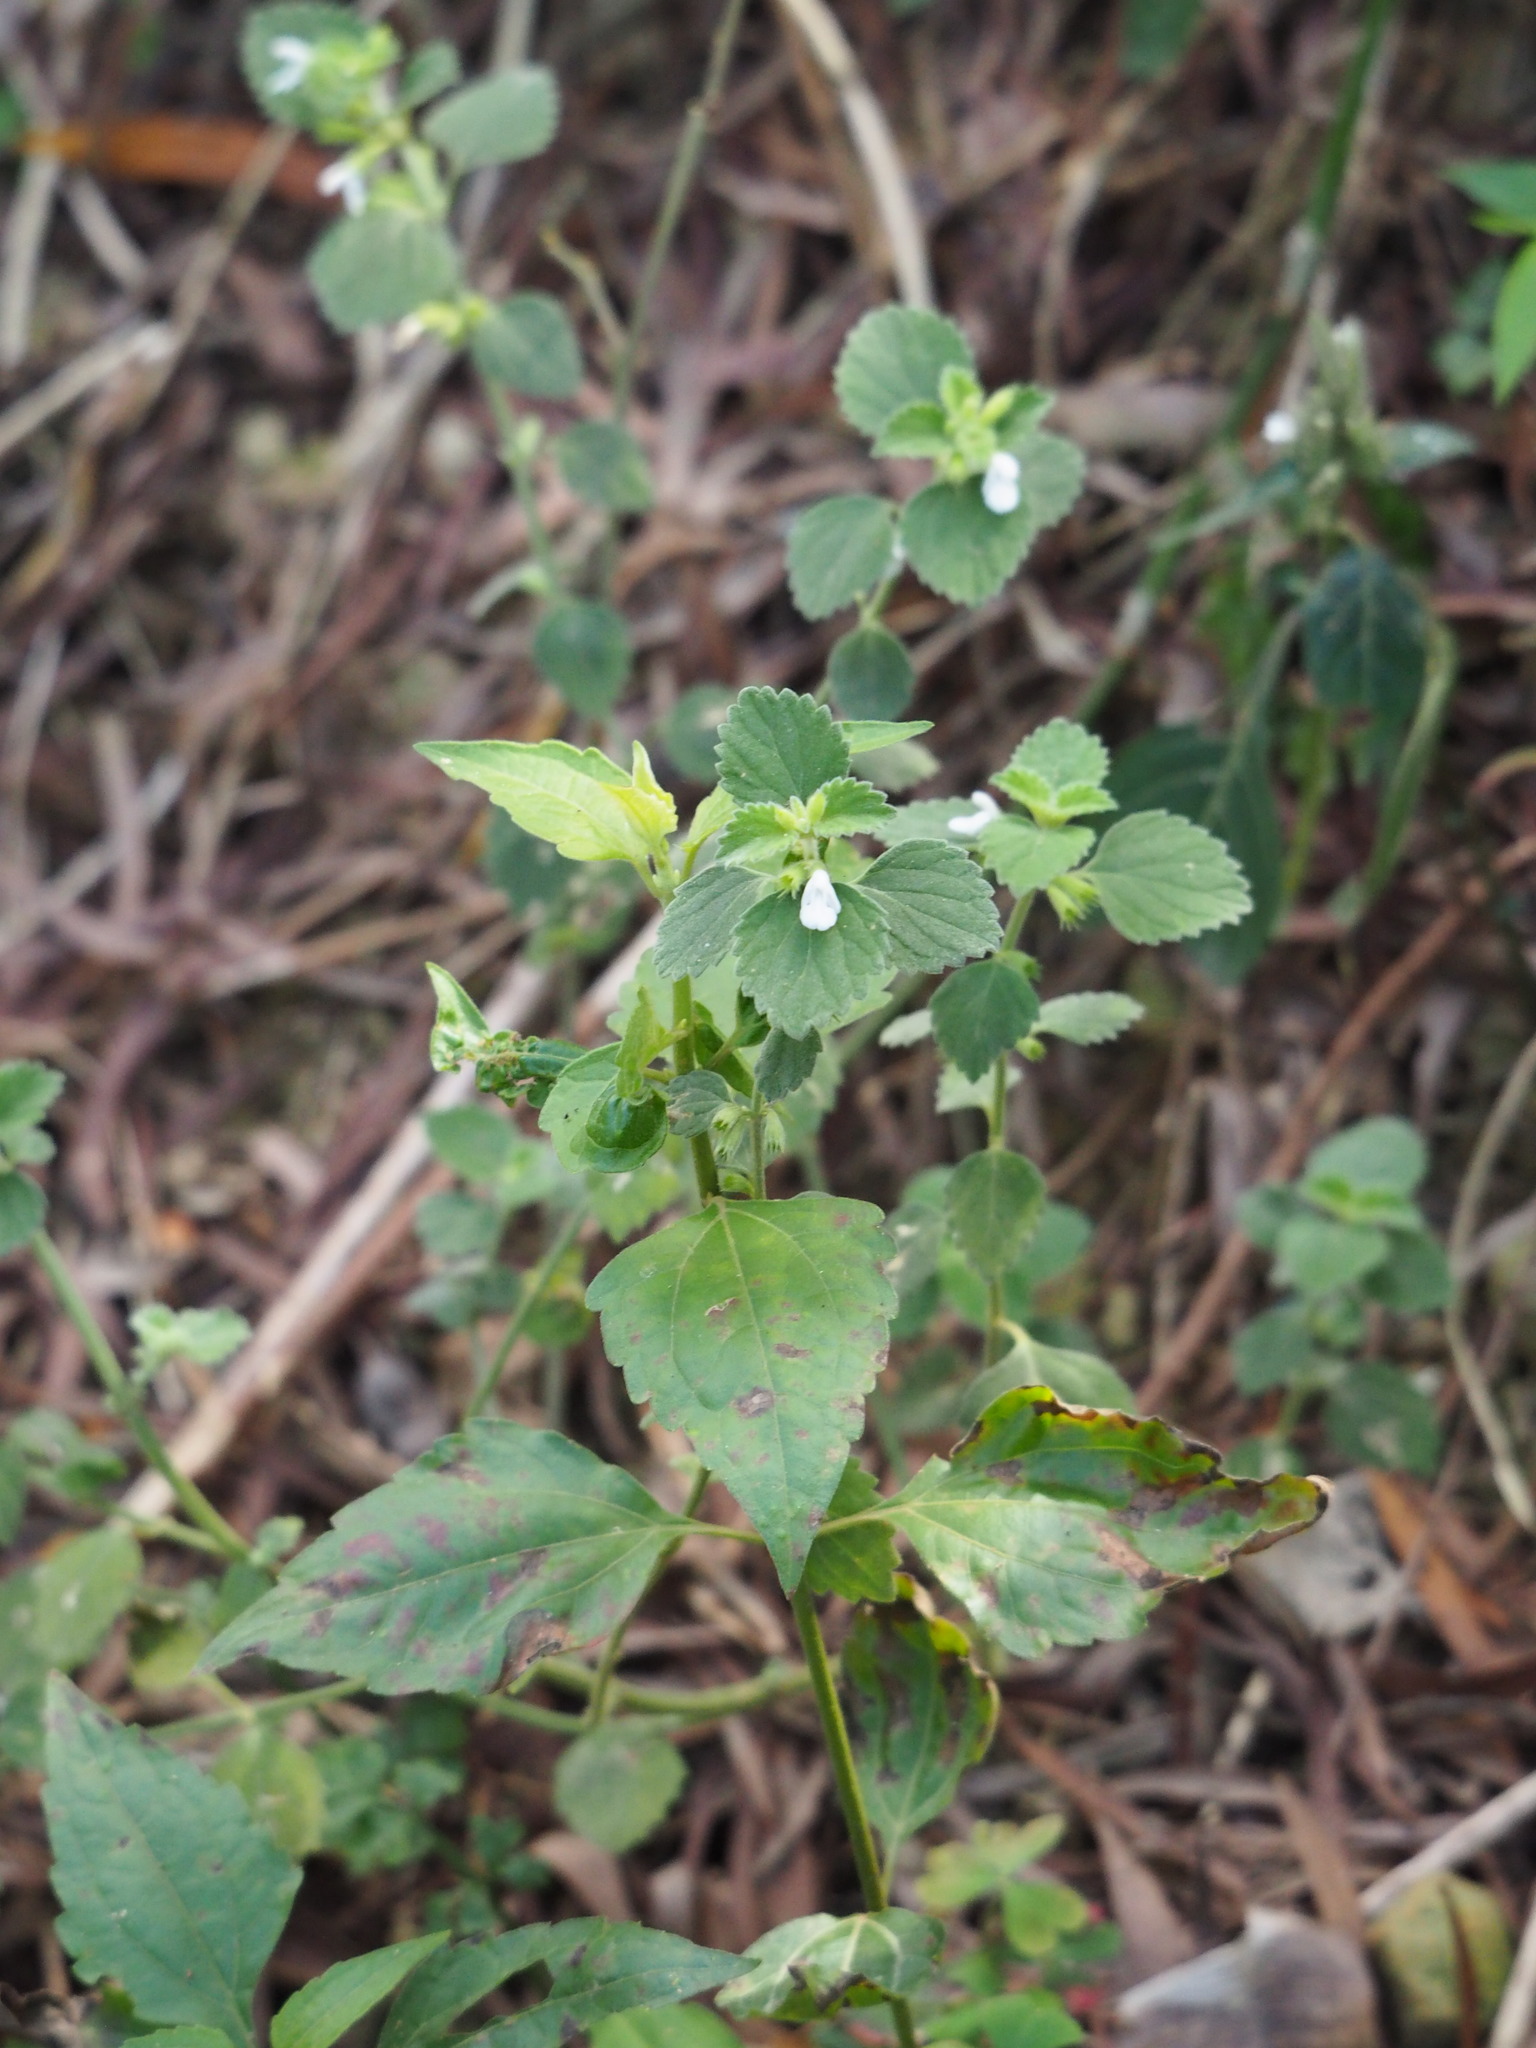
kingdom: Plantae
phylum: Tracheophyta
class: Magnoliopsida
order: Lamiales
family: Lamiaceae
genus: Leucas
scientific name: Leucas chinensis
